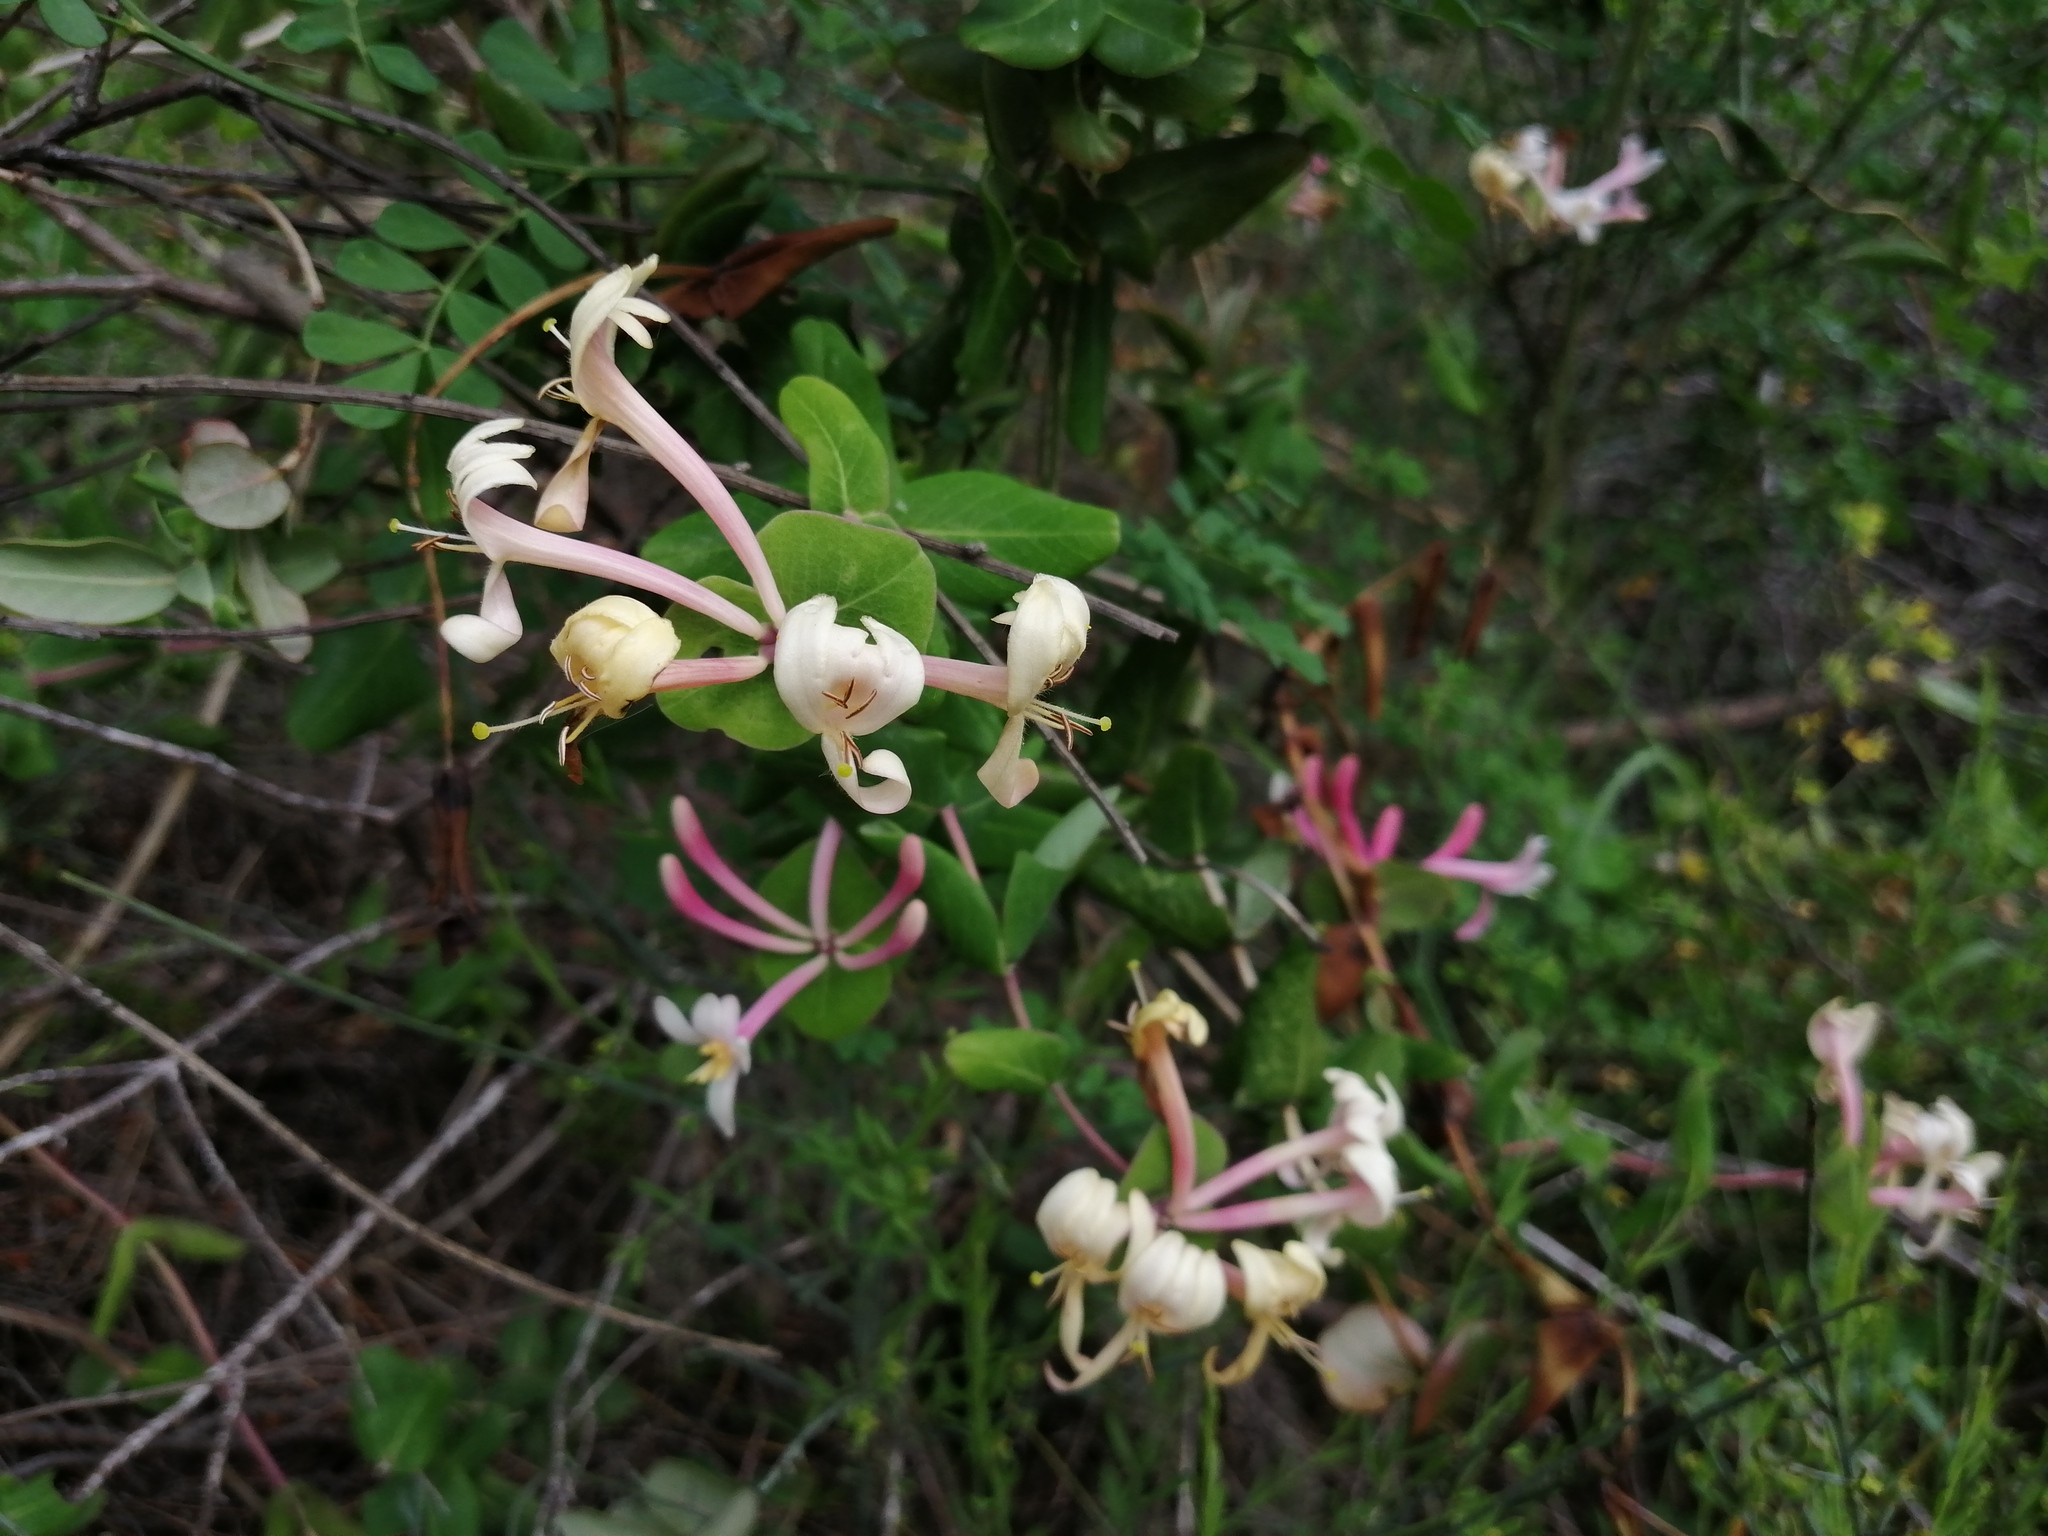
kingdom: Plantae
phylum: Tracheophyta
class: Magnoliopsida
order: Dipsacales
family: Caprifoliaceae
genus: Lonicera
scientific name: Lonicera implexa
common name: Minorca honeysuckle
